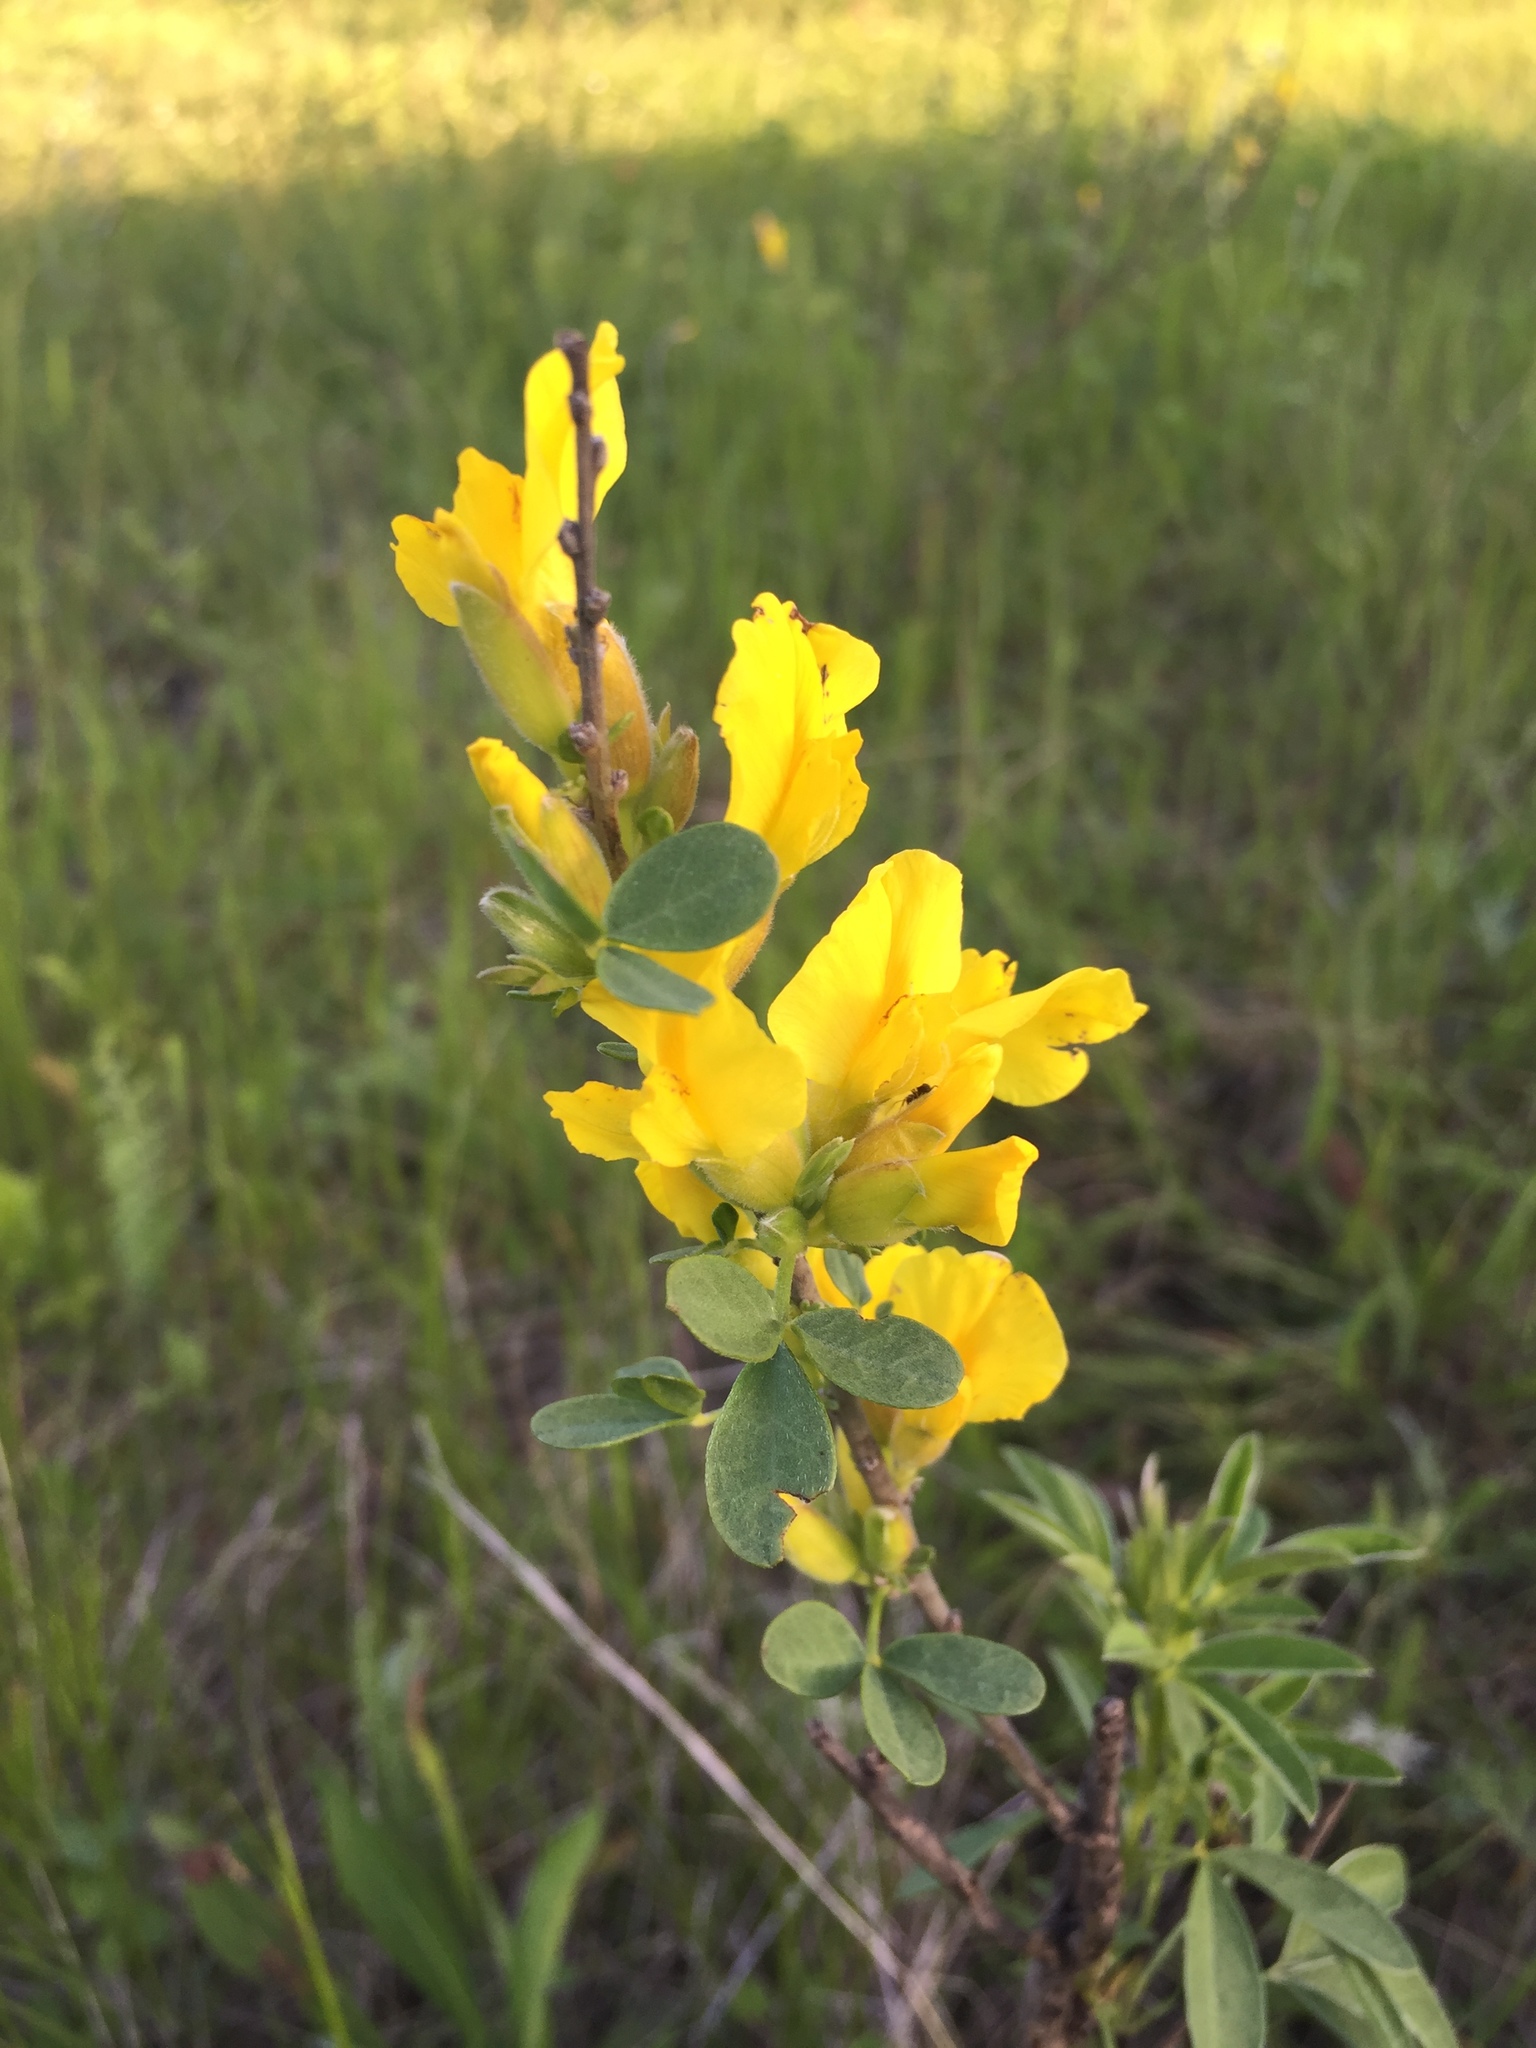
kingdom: Plantae
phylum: Tracheophyta
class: Magnoliopsida
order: Fabales
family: Fabaceae
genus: Chamaecytisus
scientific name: Chamaecytisus ruthenicus
